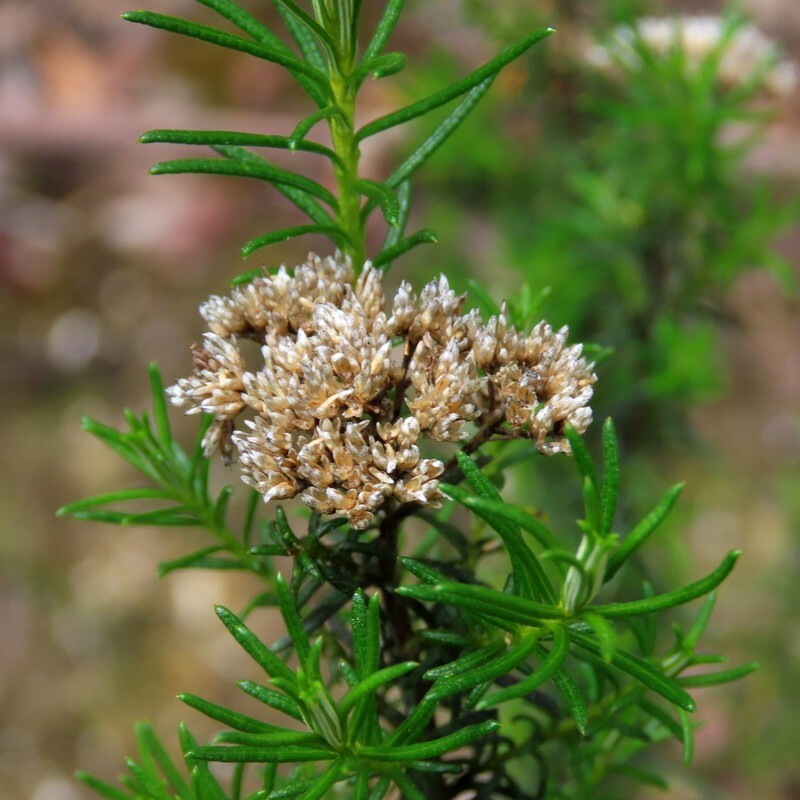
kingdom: Plantae
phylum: Tracheophyta
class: Magnoliopsida
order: Asterales
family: Asteraceae
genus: Cassinia
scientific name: Cassinia aculeata
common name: Australian tauhinu
